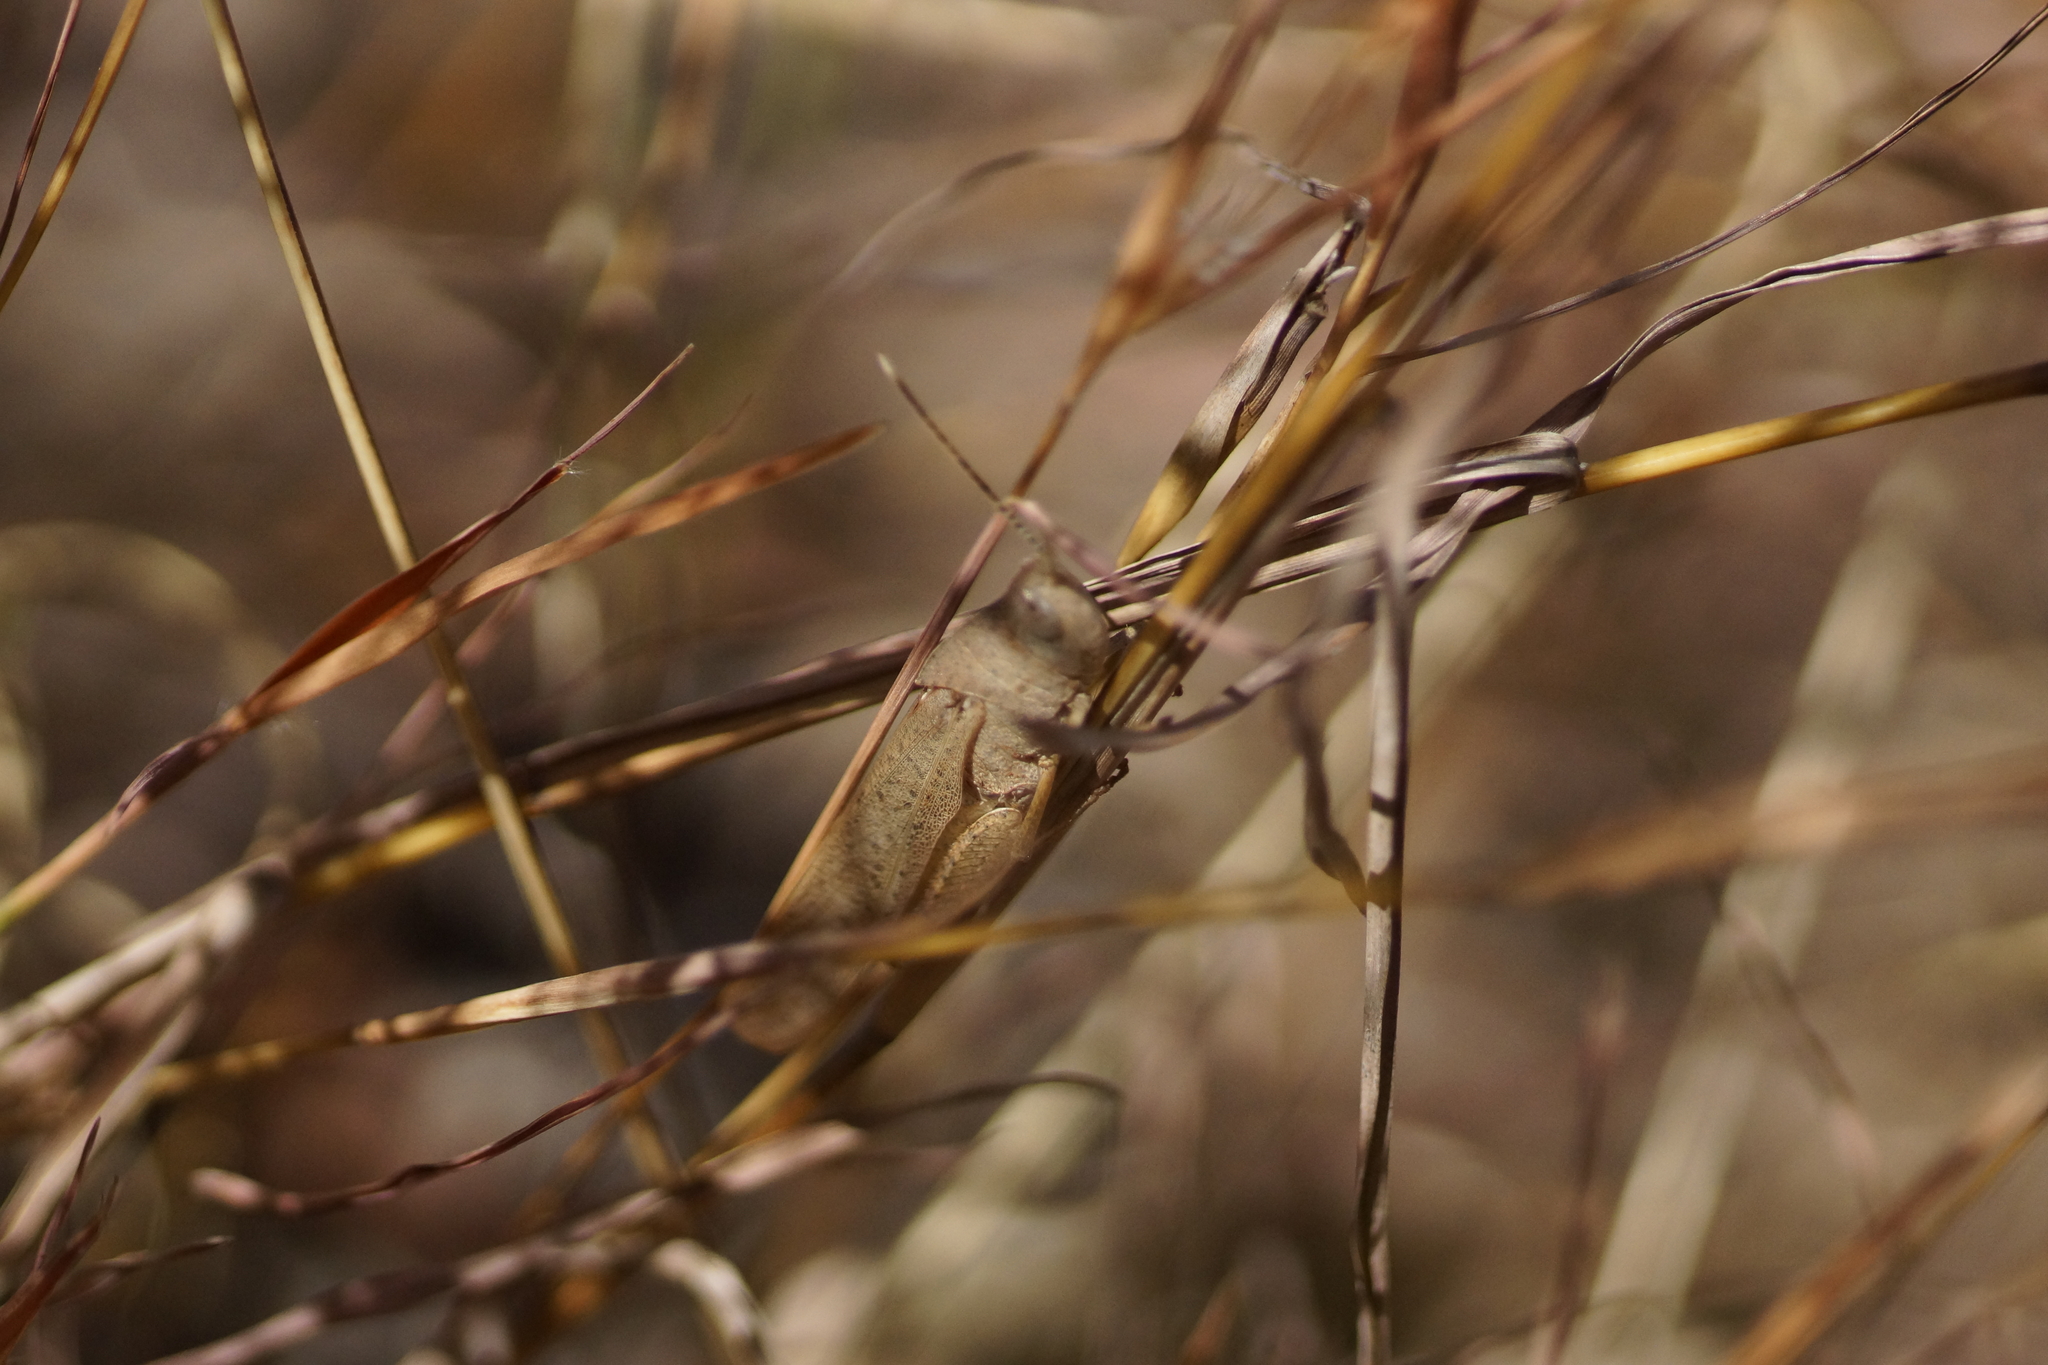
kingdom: Animalia
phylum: Arthropoda
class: Insecta
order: Orthoptera
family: Acrididae
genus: Goniaea
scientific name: Goniaea vocans
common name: Slender gumleaf grasshopper
